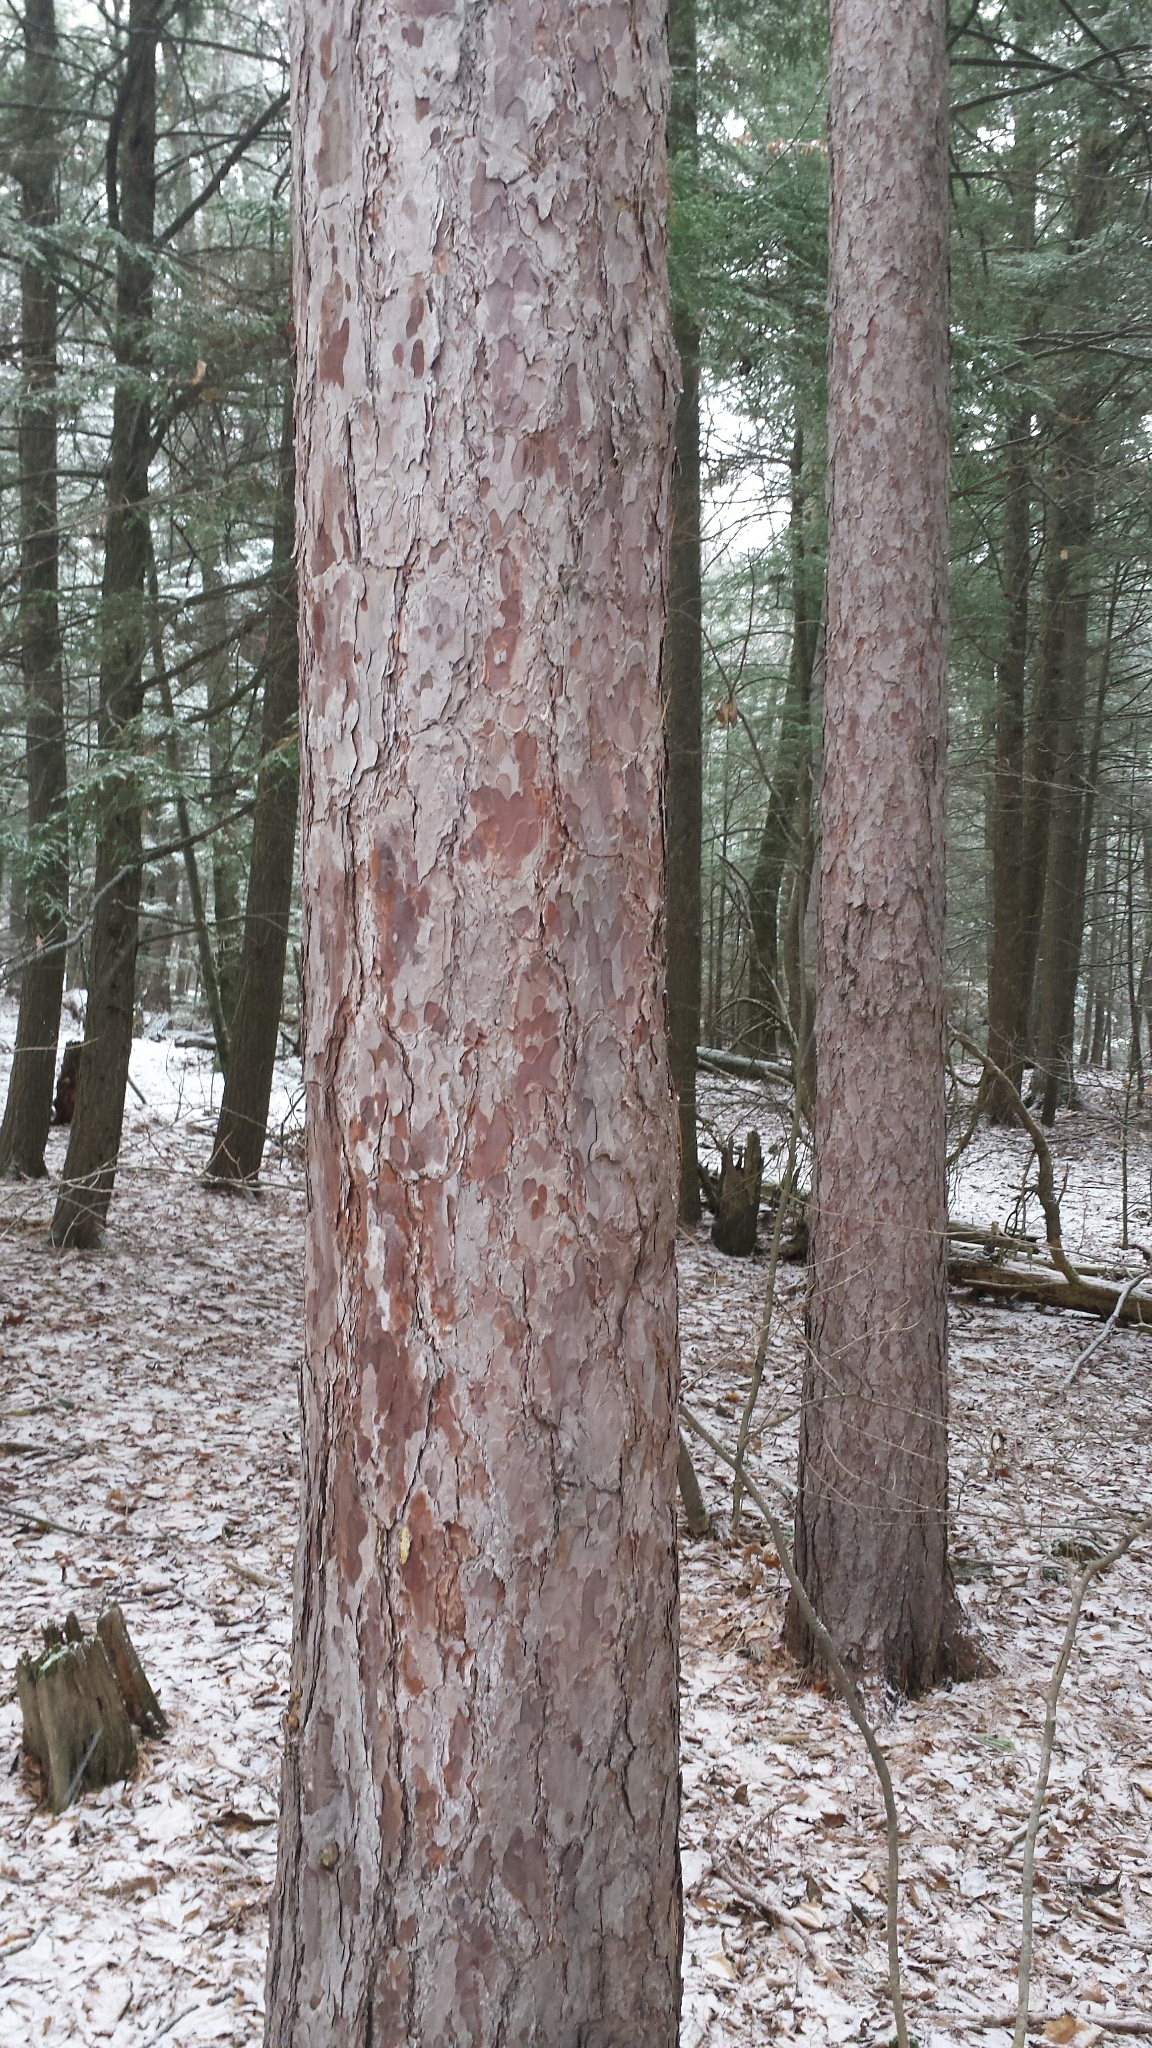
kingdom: Plantae
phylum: Tracheophyta
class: Pinopsida
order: Pinales
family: Pinaceae
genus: Pinus
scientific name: Pinus resinosa
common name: Norway pine
